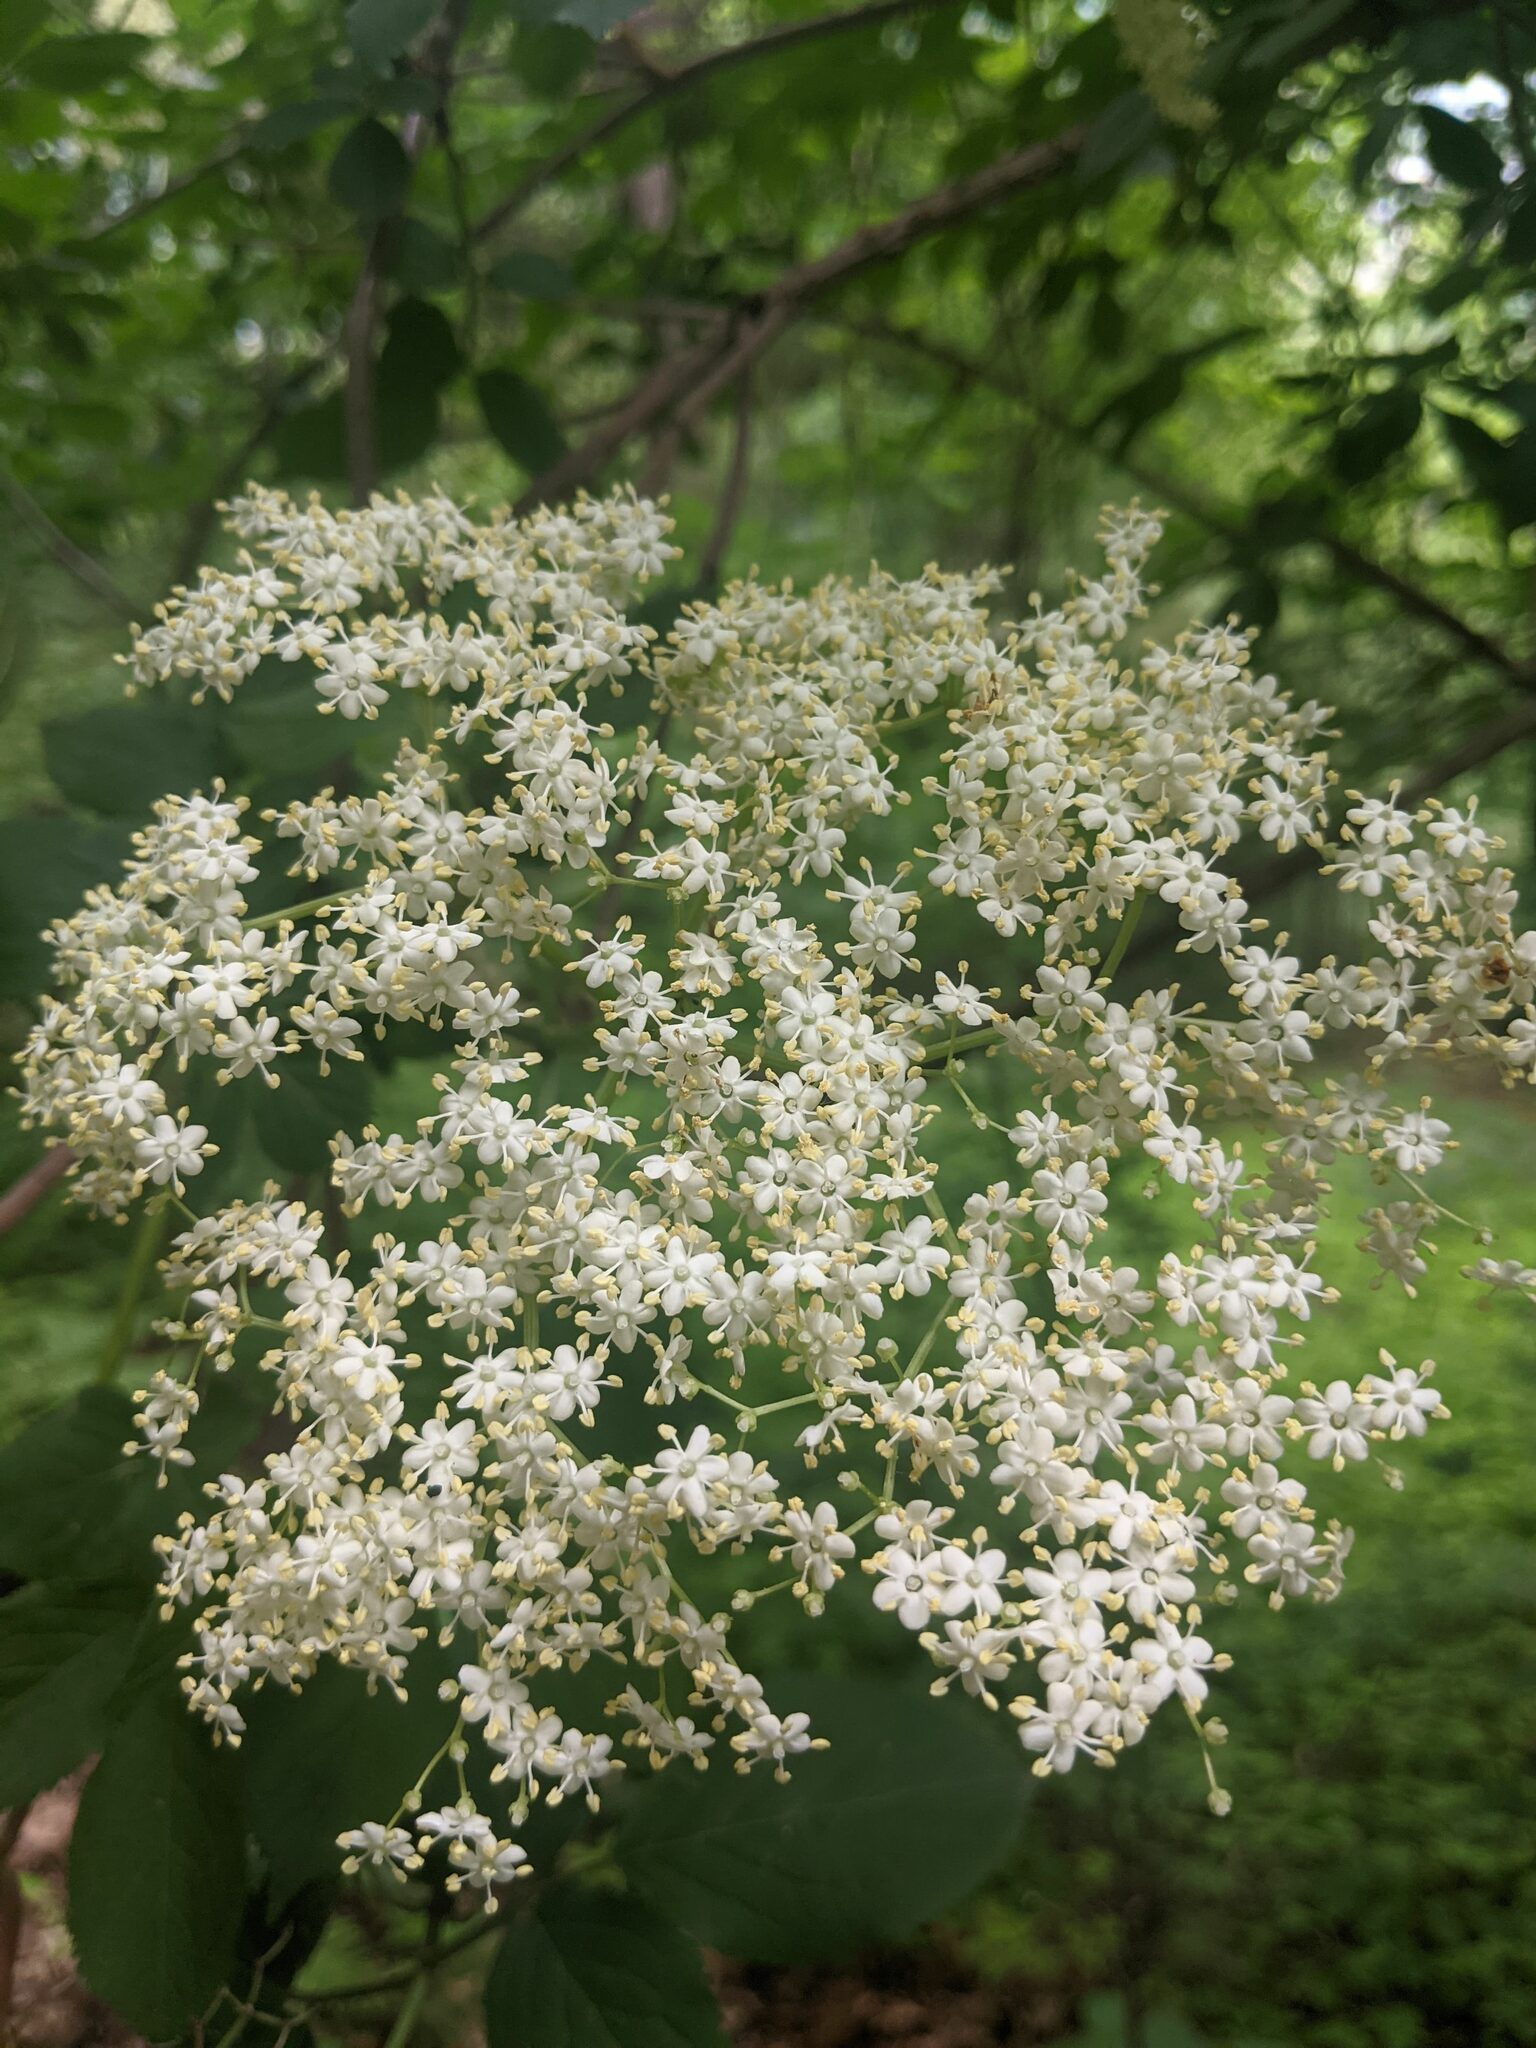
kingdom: Plantae
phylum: Tracheophyta
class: Magnoliopsida
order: Dipsacales
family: Viburnaceae
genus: Sambucus
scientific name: Sambucus nigra
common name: Elder
